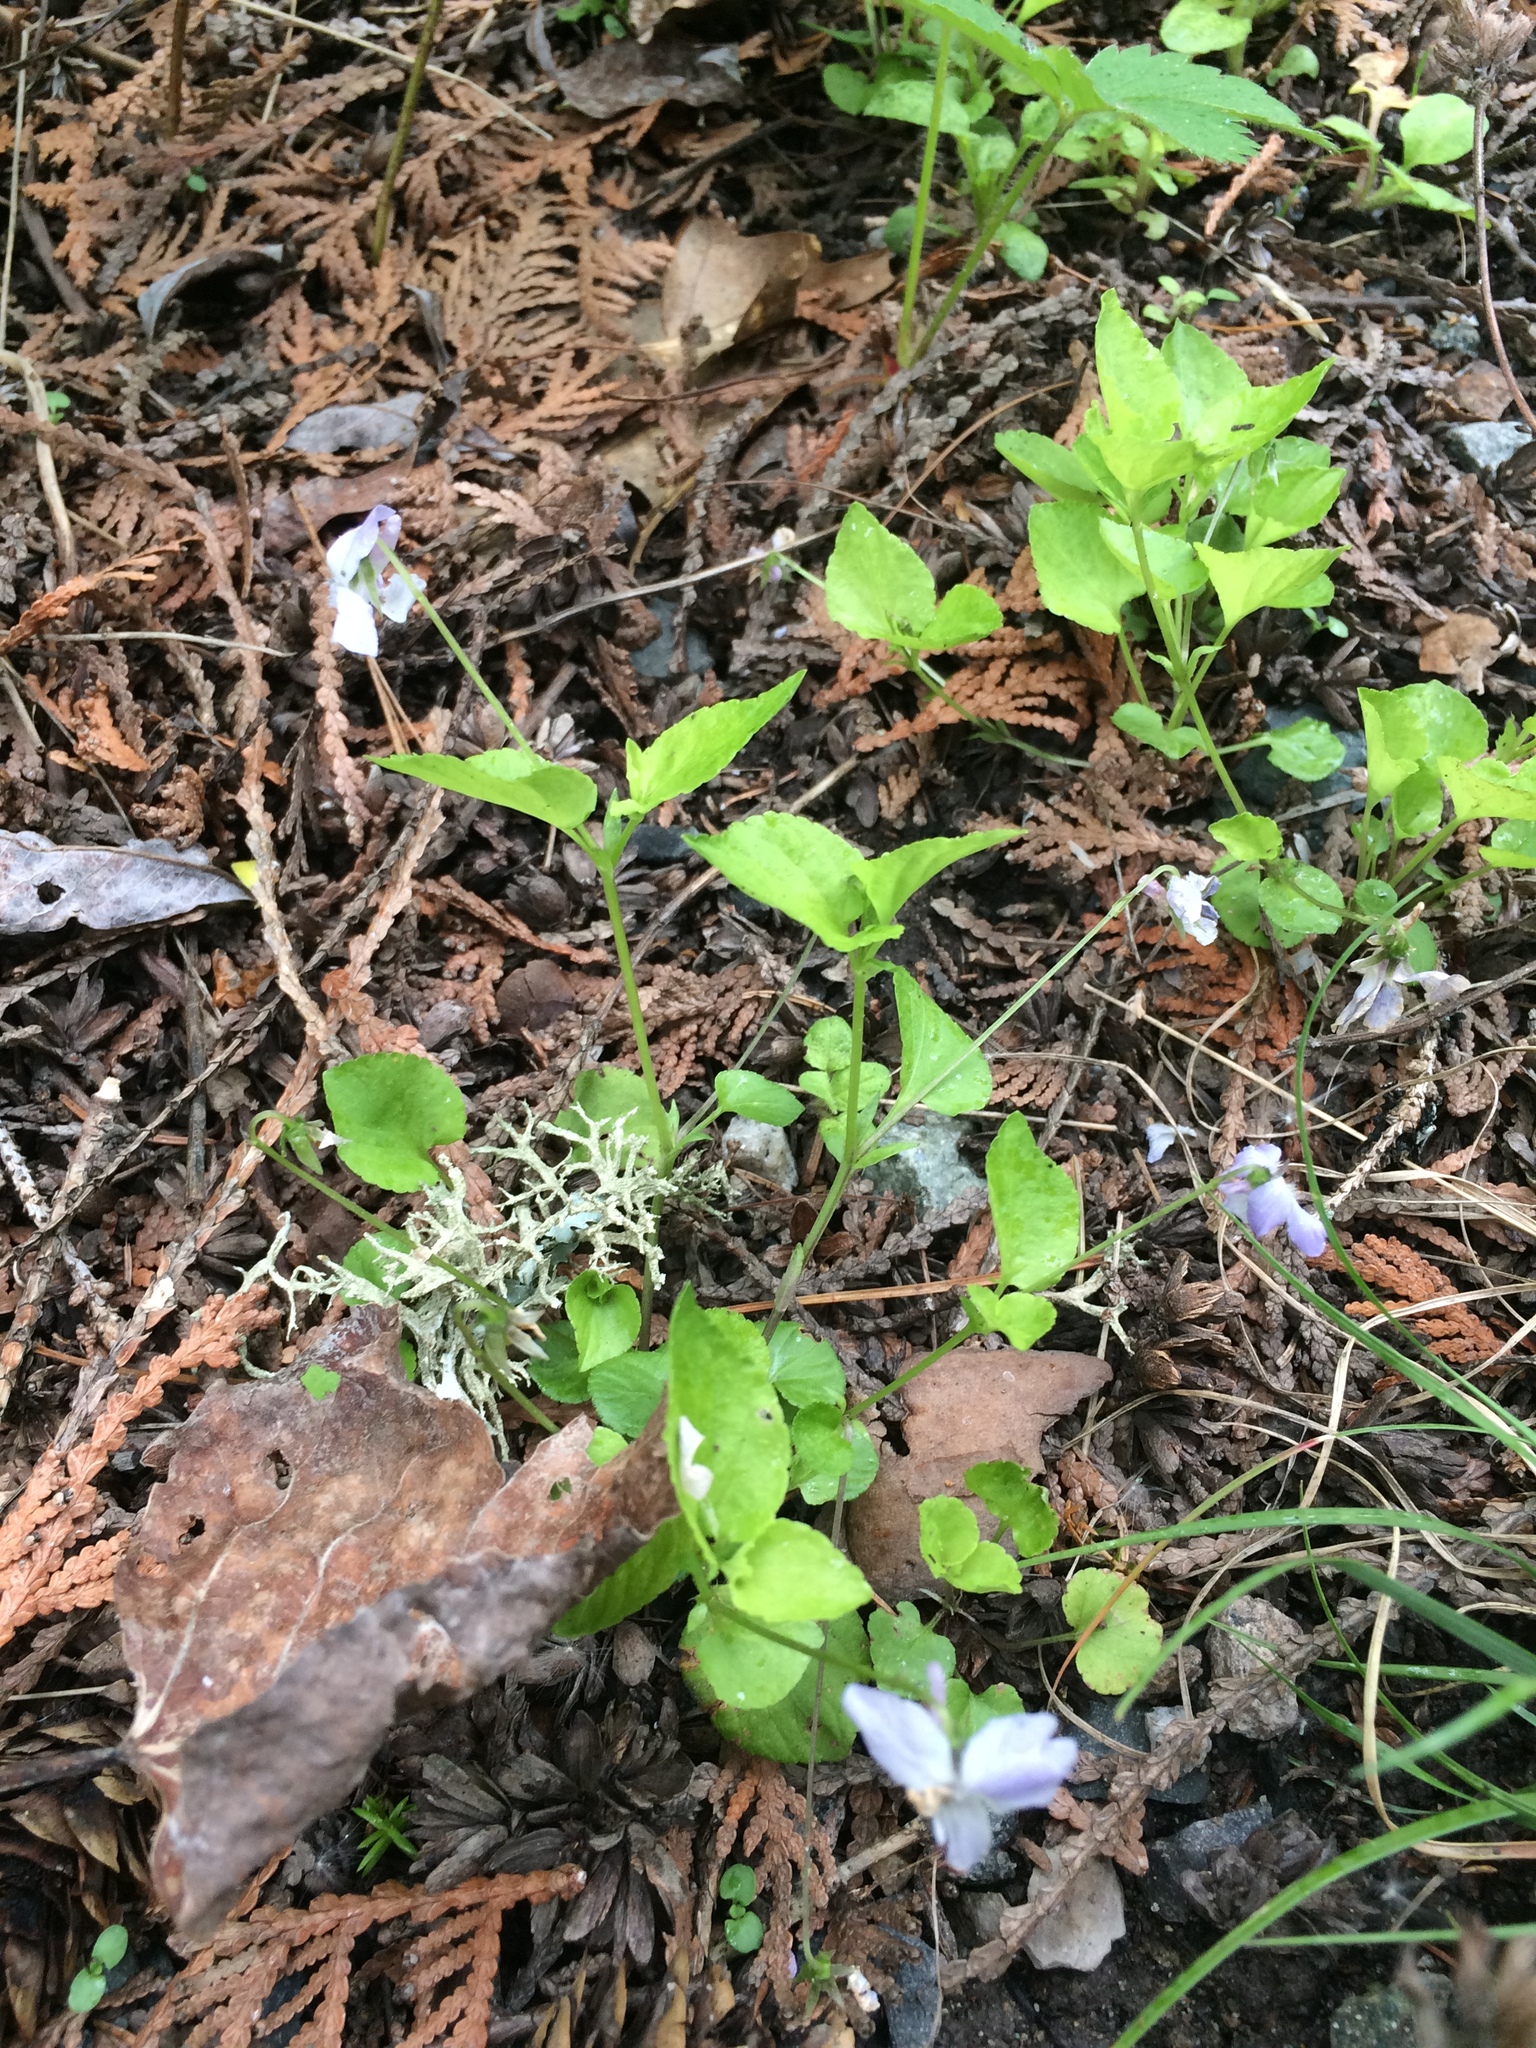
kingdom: Plantae
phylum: Tracheophyta
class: Magnoliopsida
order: Malpighiales
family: Violaceae
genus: Viola
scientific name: Viola labradorica
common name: Labrador violet
